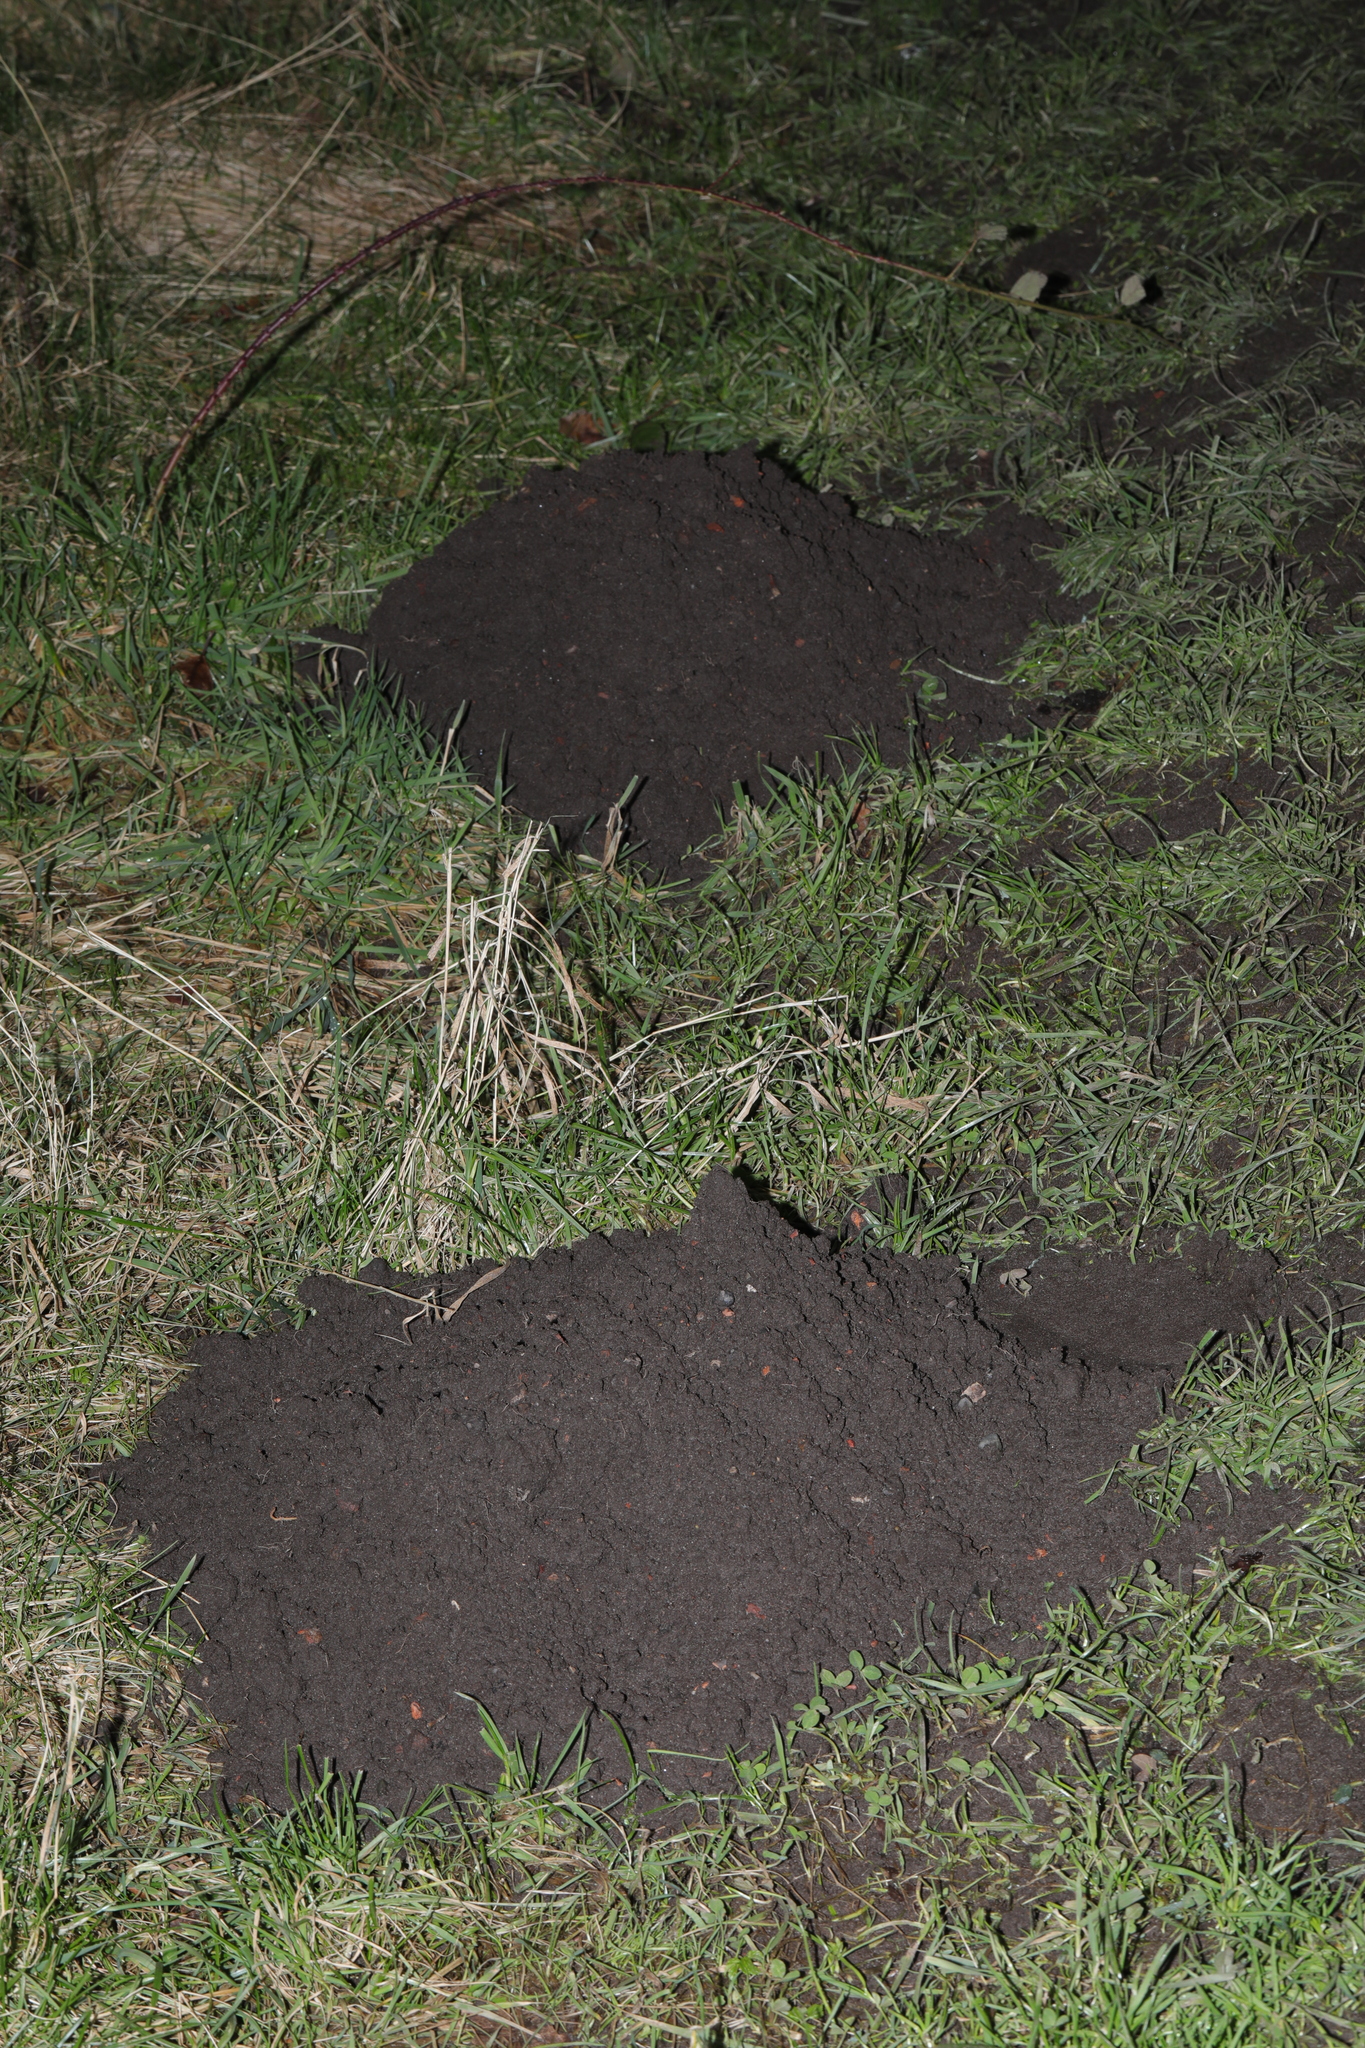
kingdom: Animalia
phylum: Chordata
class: Mammalia
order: Soricomorpha
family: Talpidae
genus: Talpa
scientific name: Talpa europaea
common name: European mole
